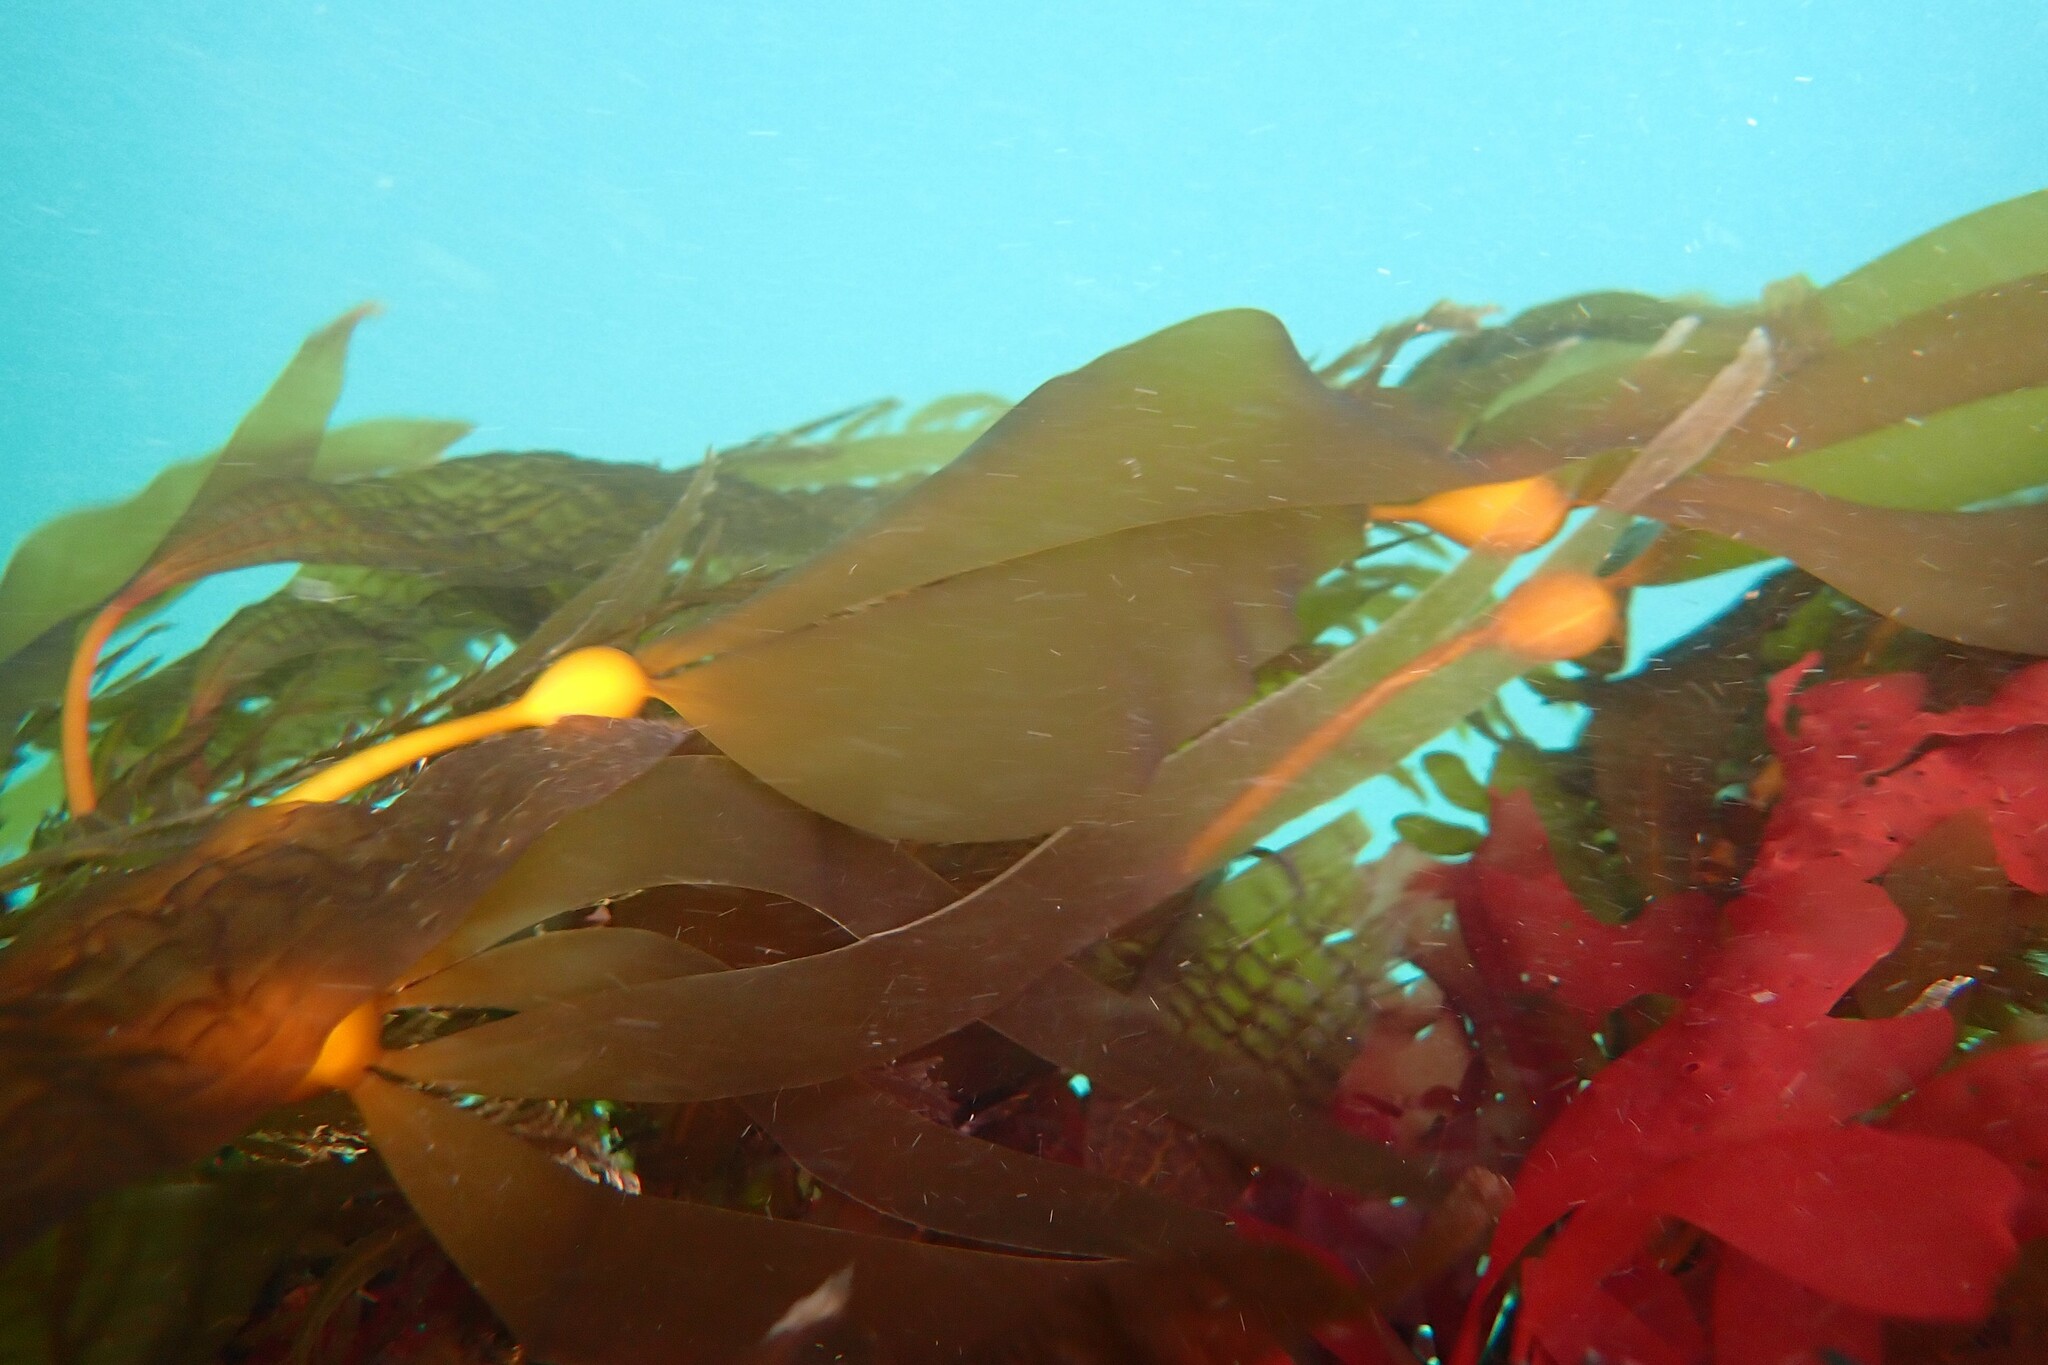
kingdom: Chromista
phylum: Ochrophyta
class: Phaeophyceae
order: Laminariales
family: Laminariaceae
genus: Nereocystis
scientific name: Nereocystis luetkeana
